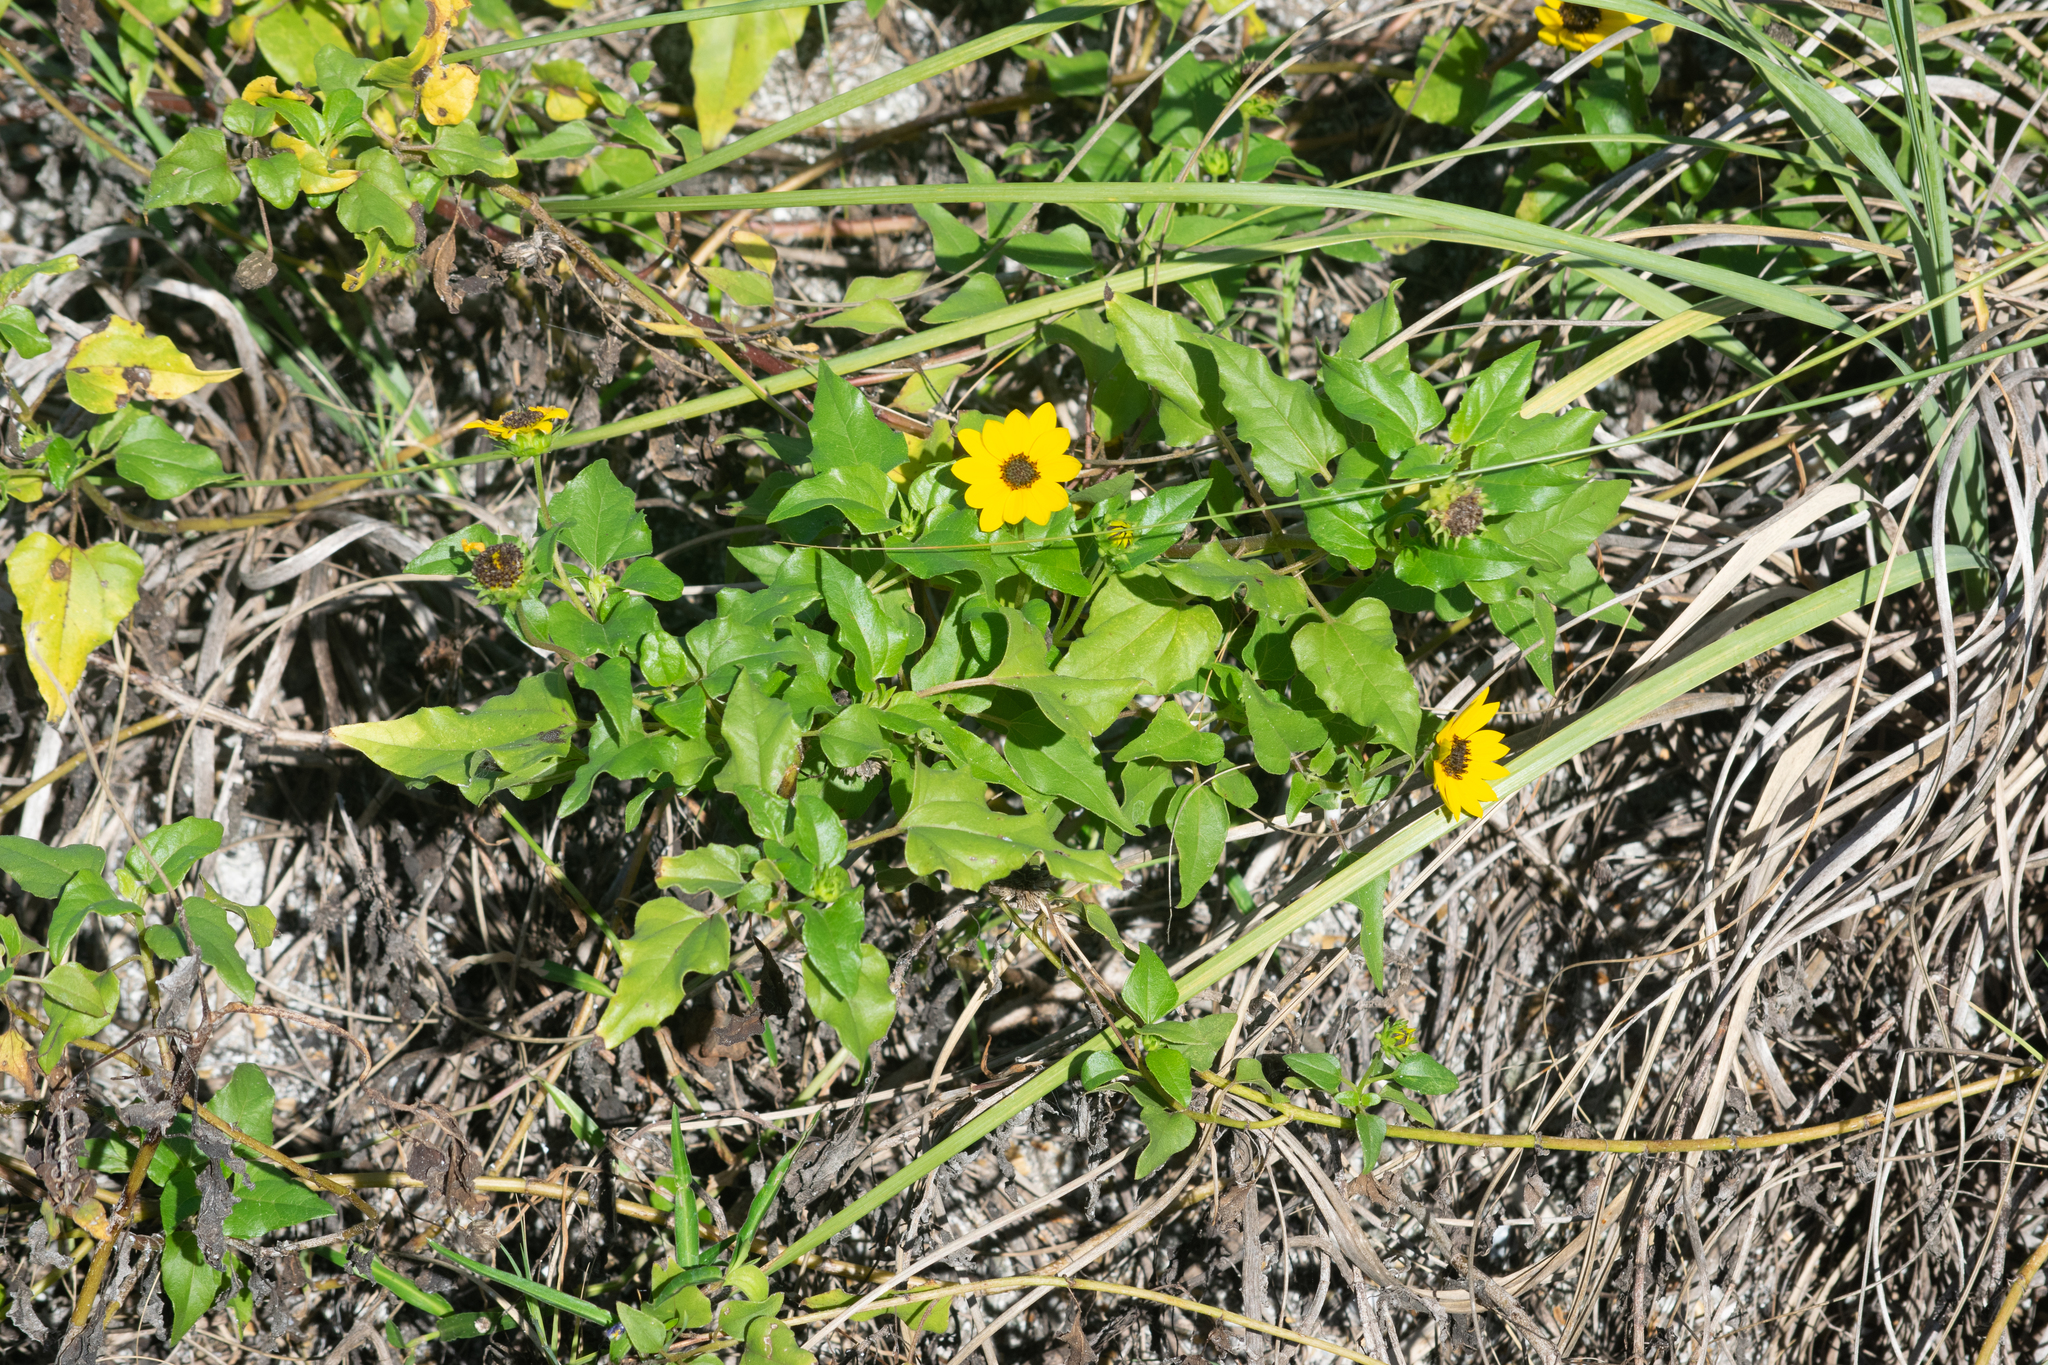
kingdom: Plantae
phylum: Tracheophyta
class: Magnoliopsida
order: Asterales
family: Asteraceae
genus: Helianthus
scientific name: Helianthus debilis
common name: Weak sunflower
